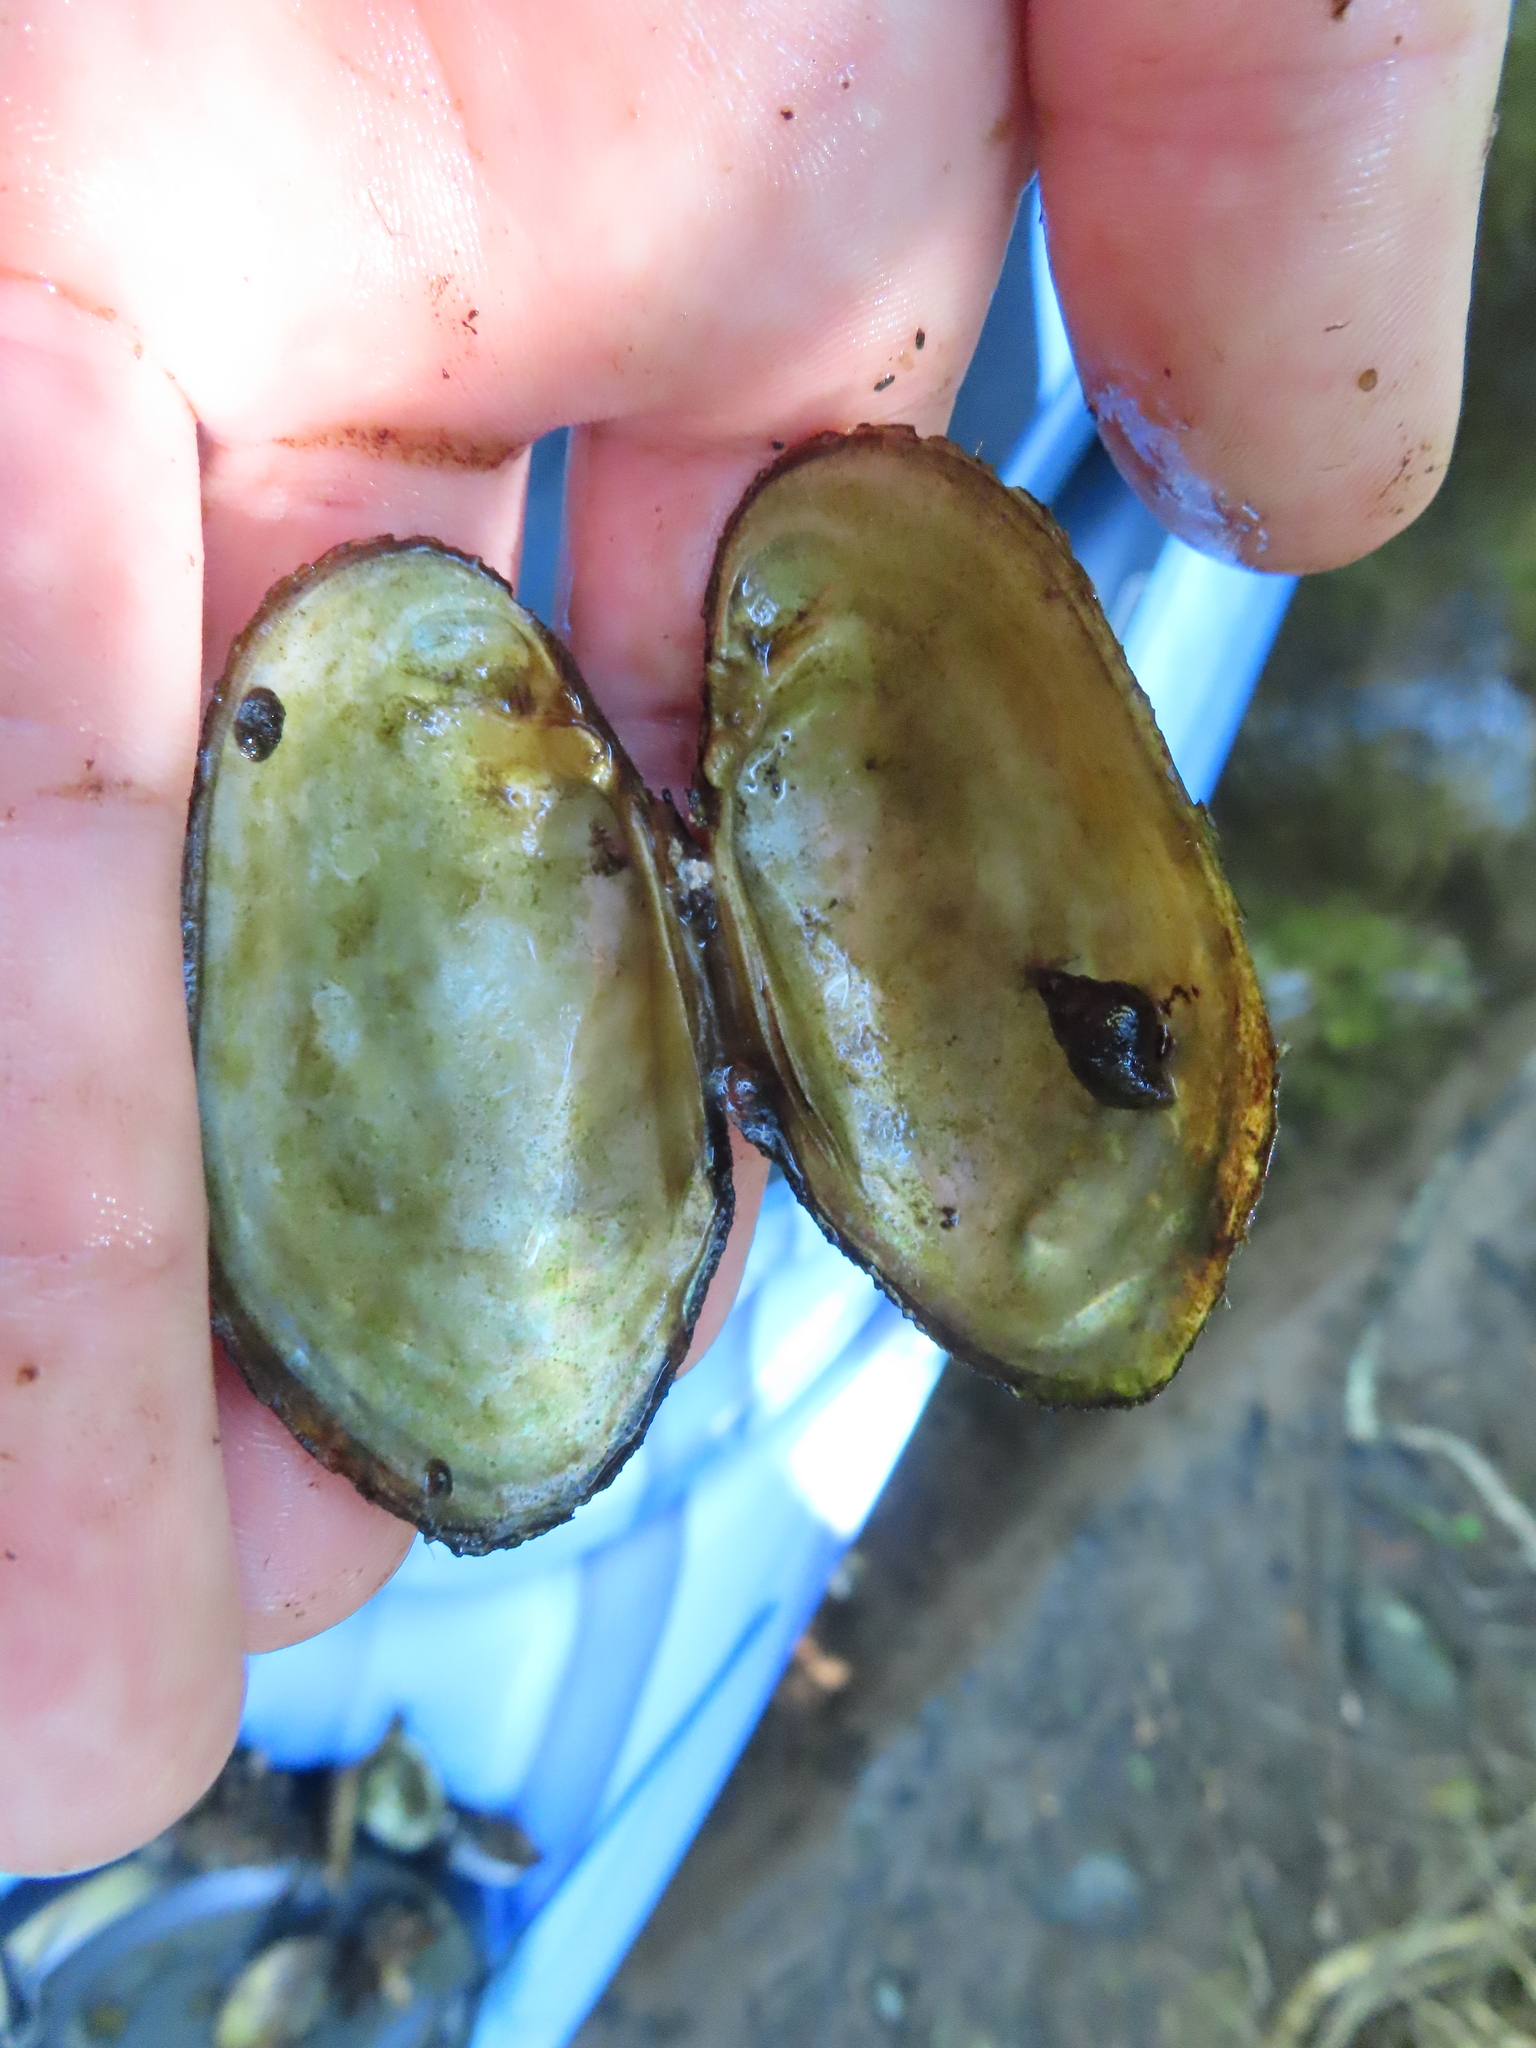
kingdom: Animalia
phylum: Mollusca
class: Bivalvia
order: Unionida
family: Unionidae
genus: Lampsilis
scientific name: Lampsilis siliquoidea
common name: Fatmucket
